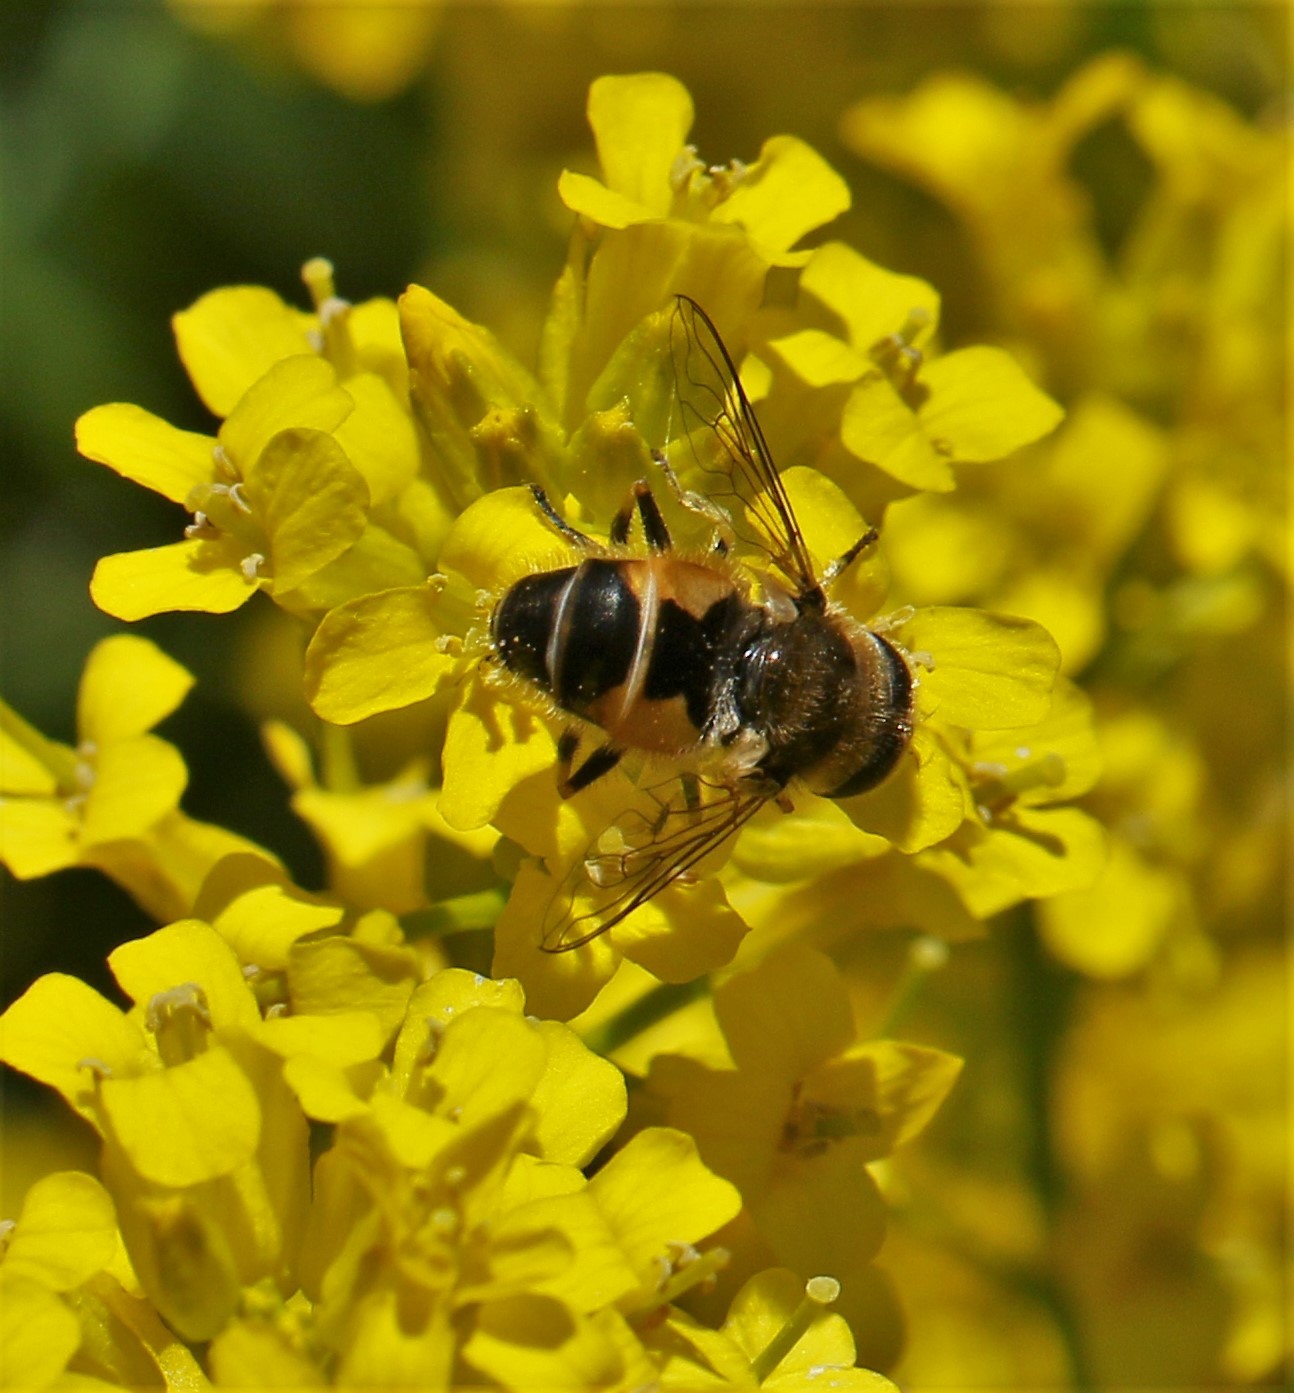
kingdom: Animalia
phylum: Arthropoda
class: Insecta
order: Diptera
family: Syrphidae
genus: Eristalis
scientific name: Eristalis arbustorum
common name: Hover fly
